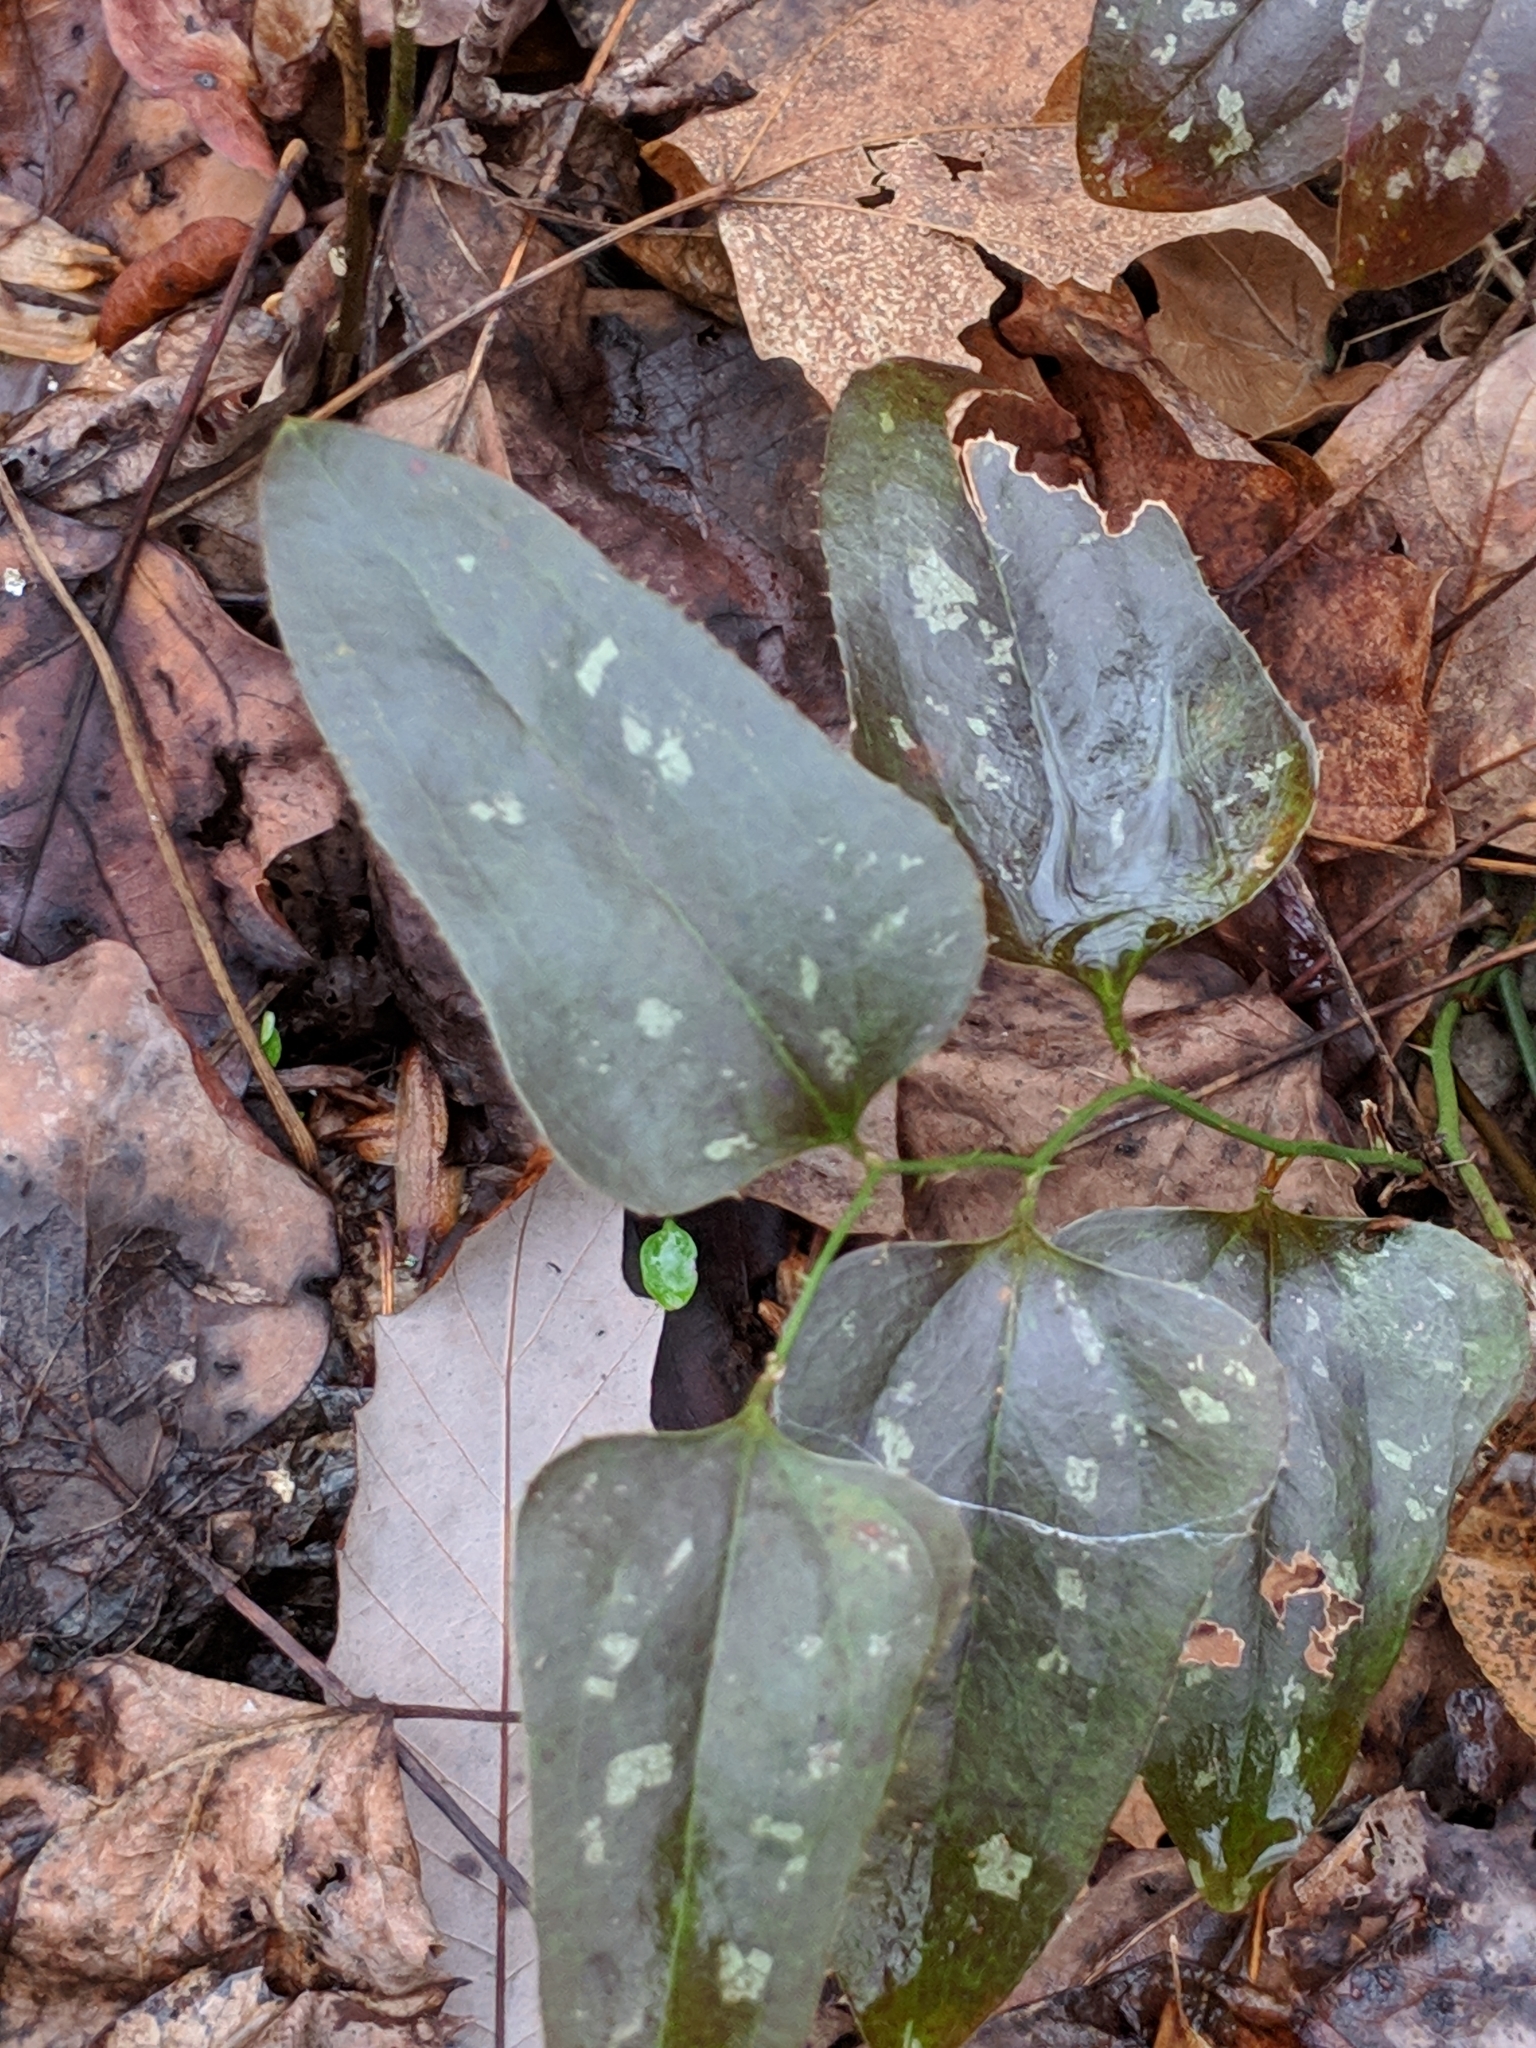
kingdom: Plantae
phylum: Tracheophyta
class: Liliopsida
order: Liliales
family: Smilacaceae
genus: Smilax
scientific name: Smilax bona-nox
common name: Catbrier
